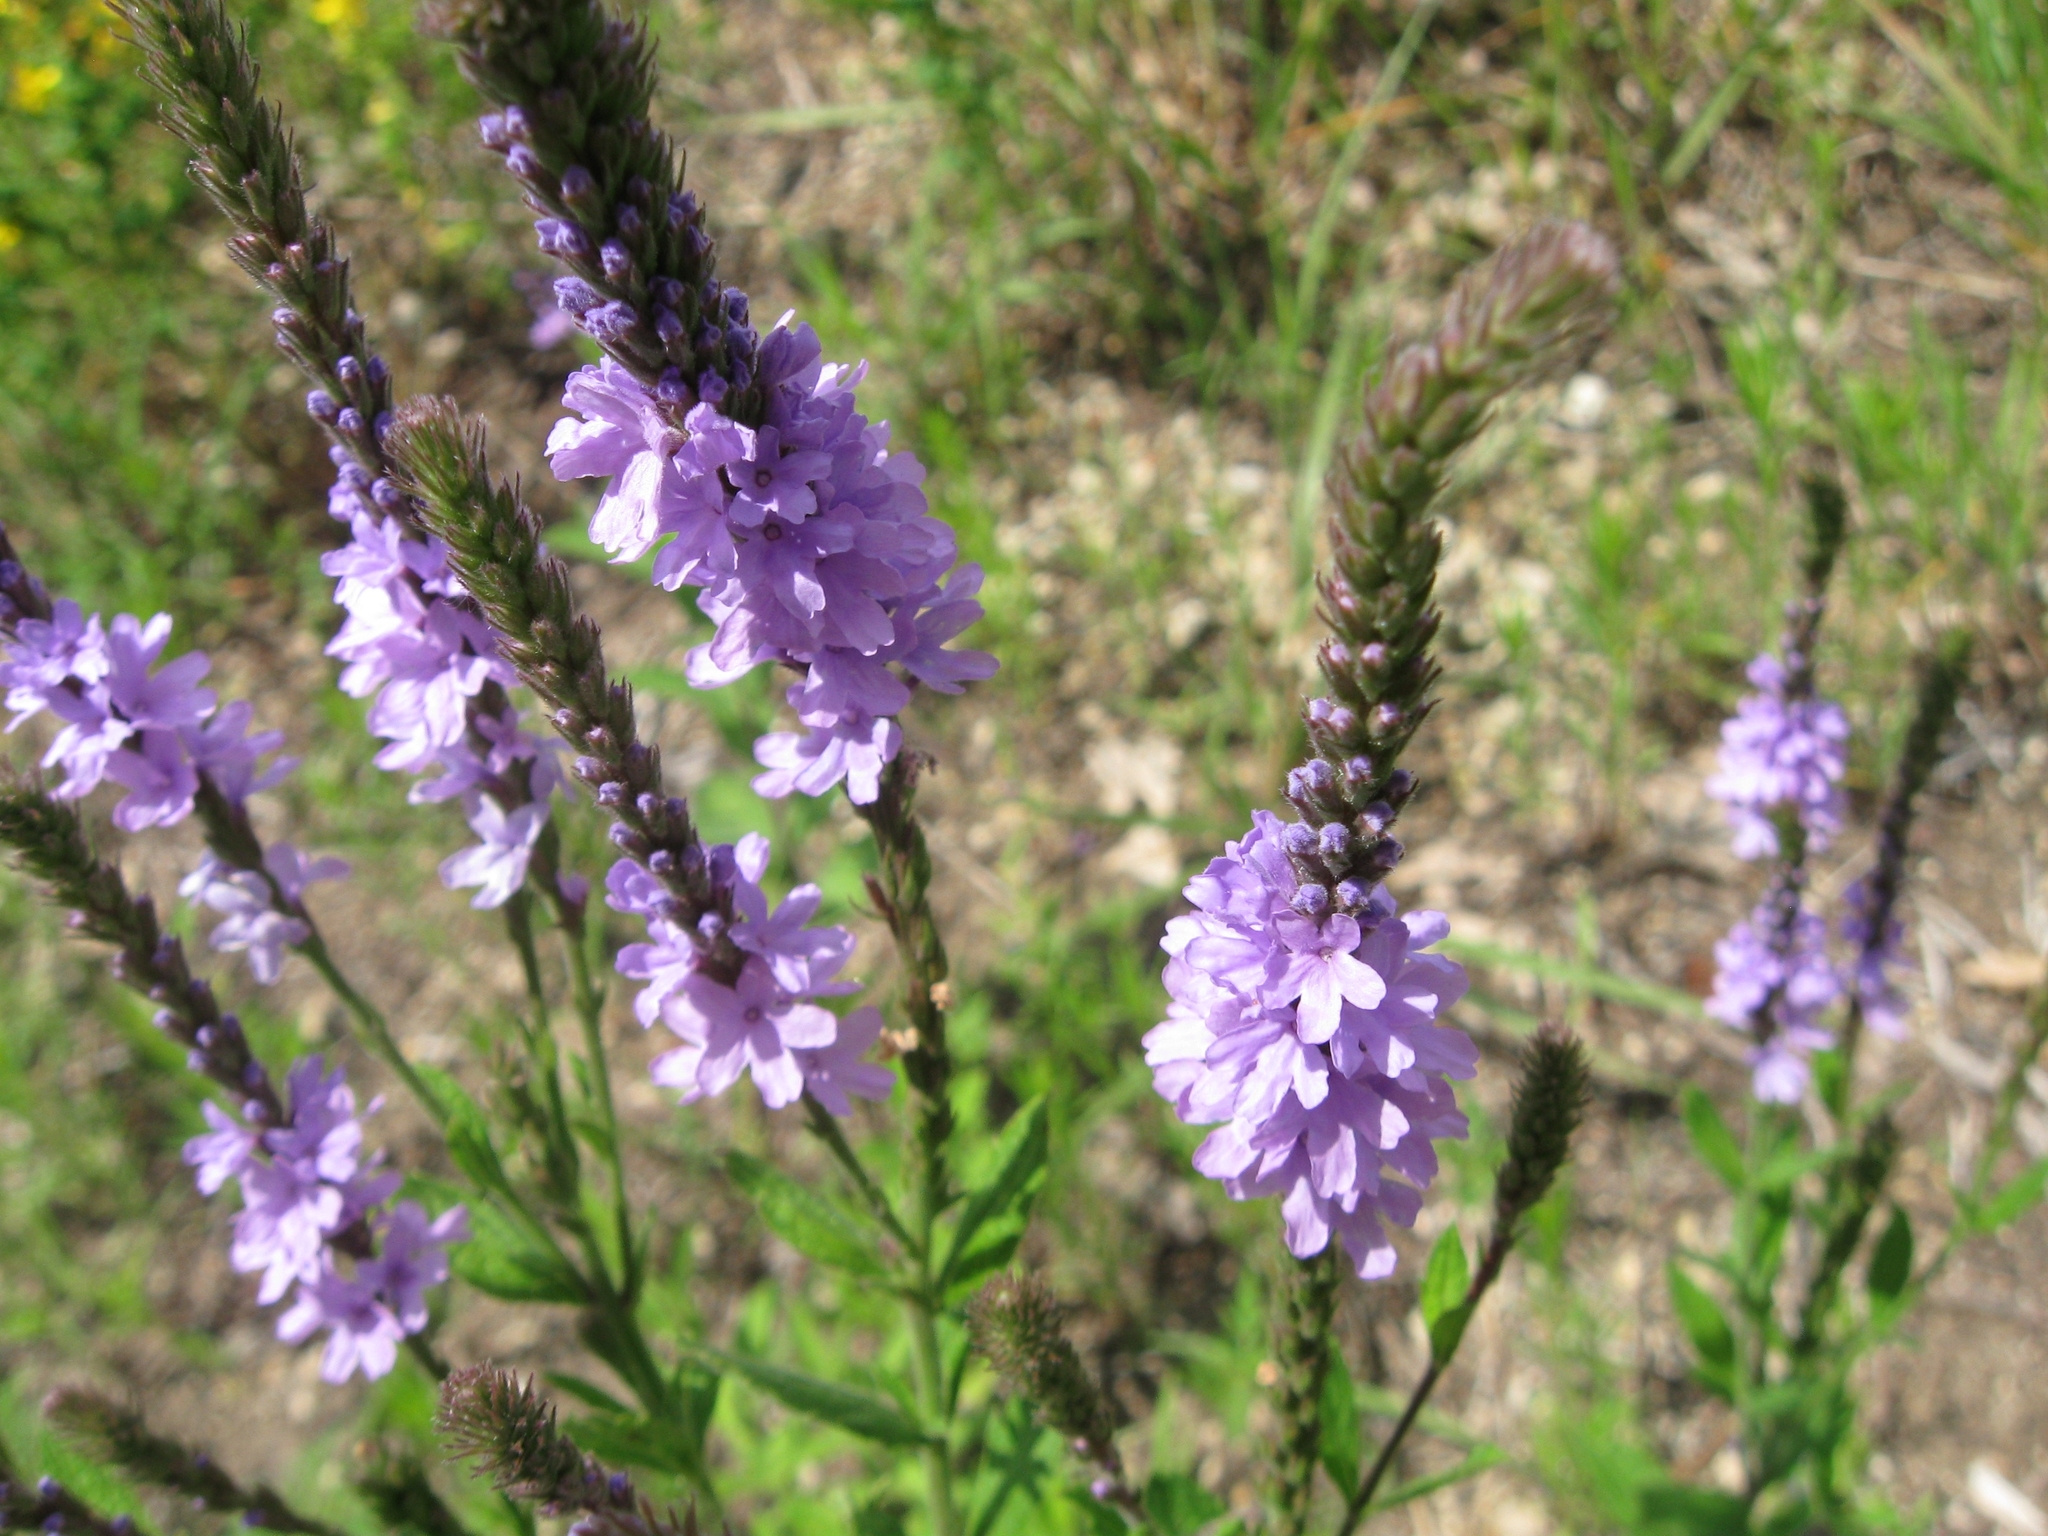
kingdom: Plantae
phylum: Tracheophyta
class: Magnoliopsida
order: Lamiales
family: Verbenaceae
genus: Verbena
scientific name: Verbena stricta
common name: Hoary vervain
